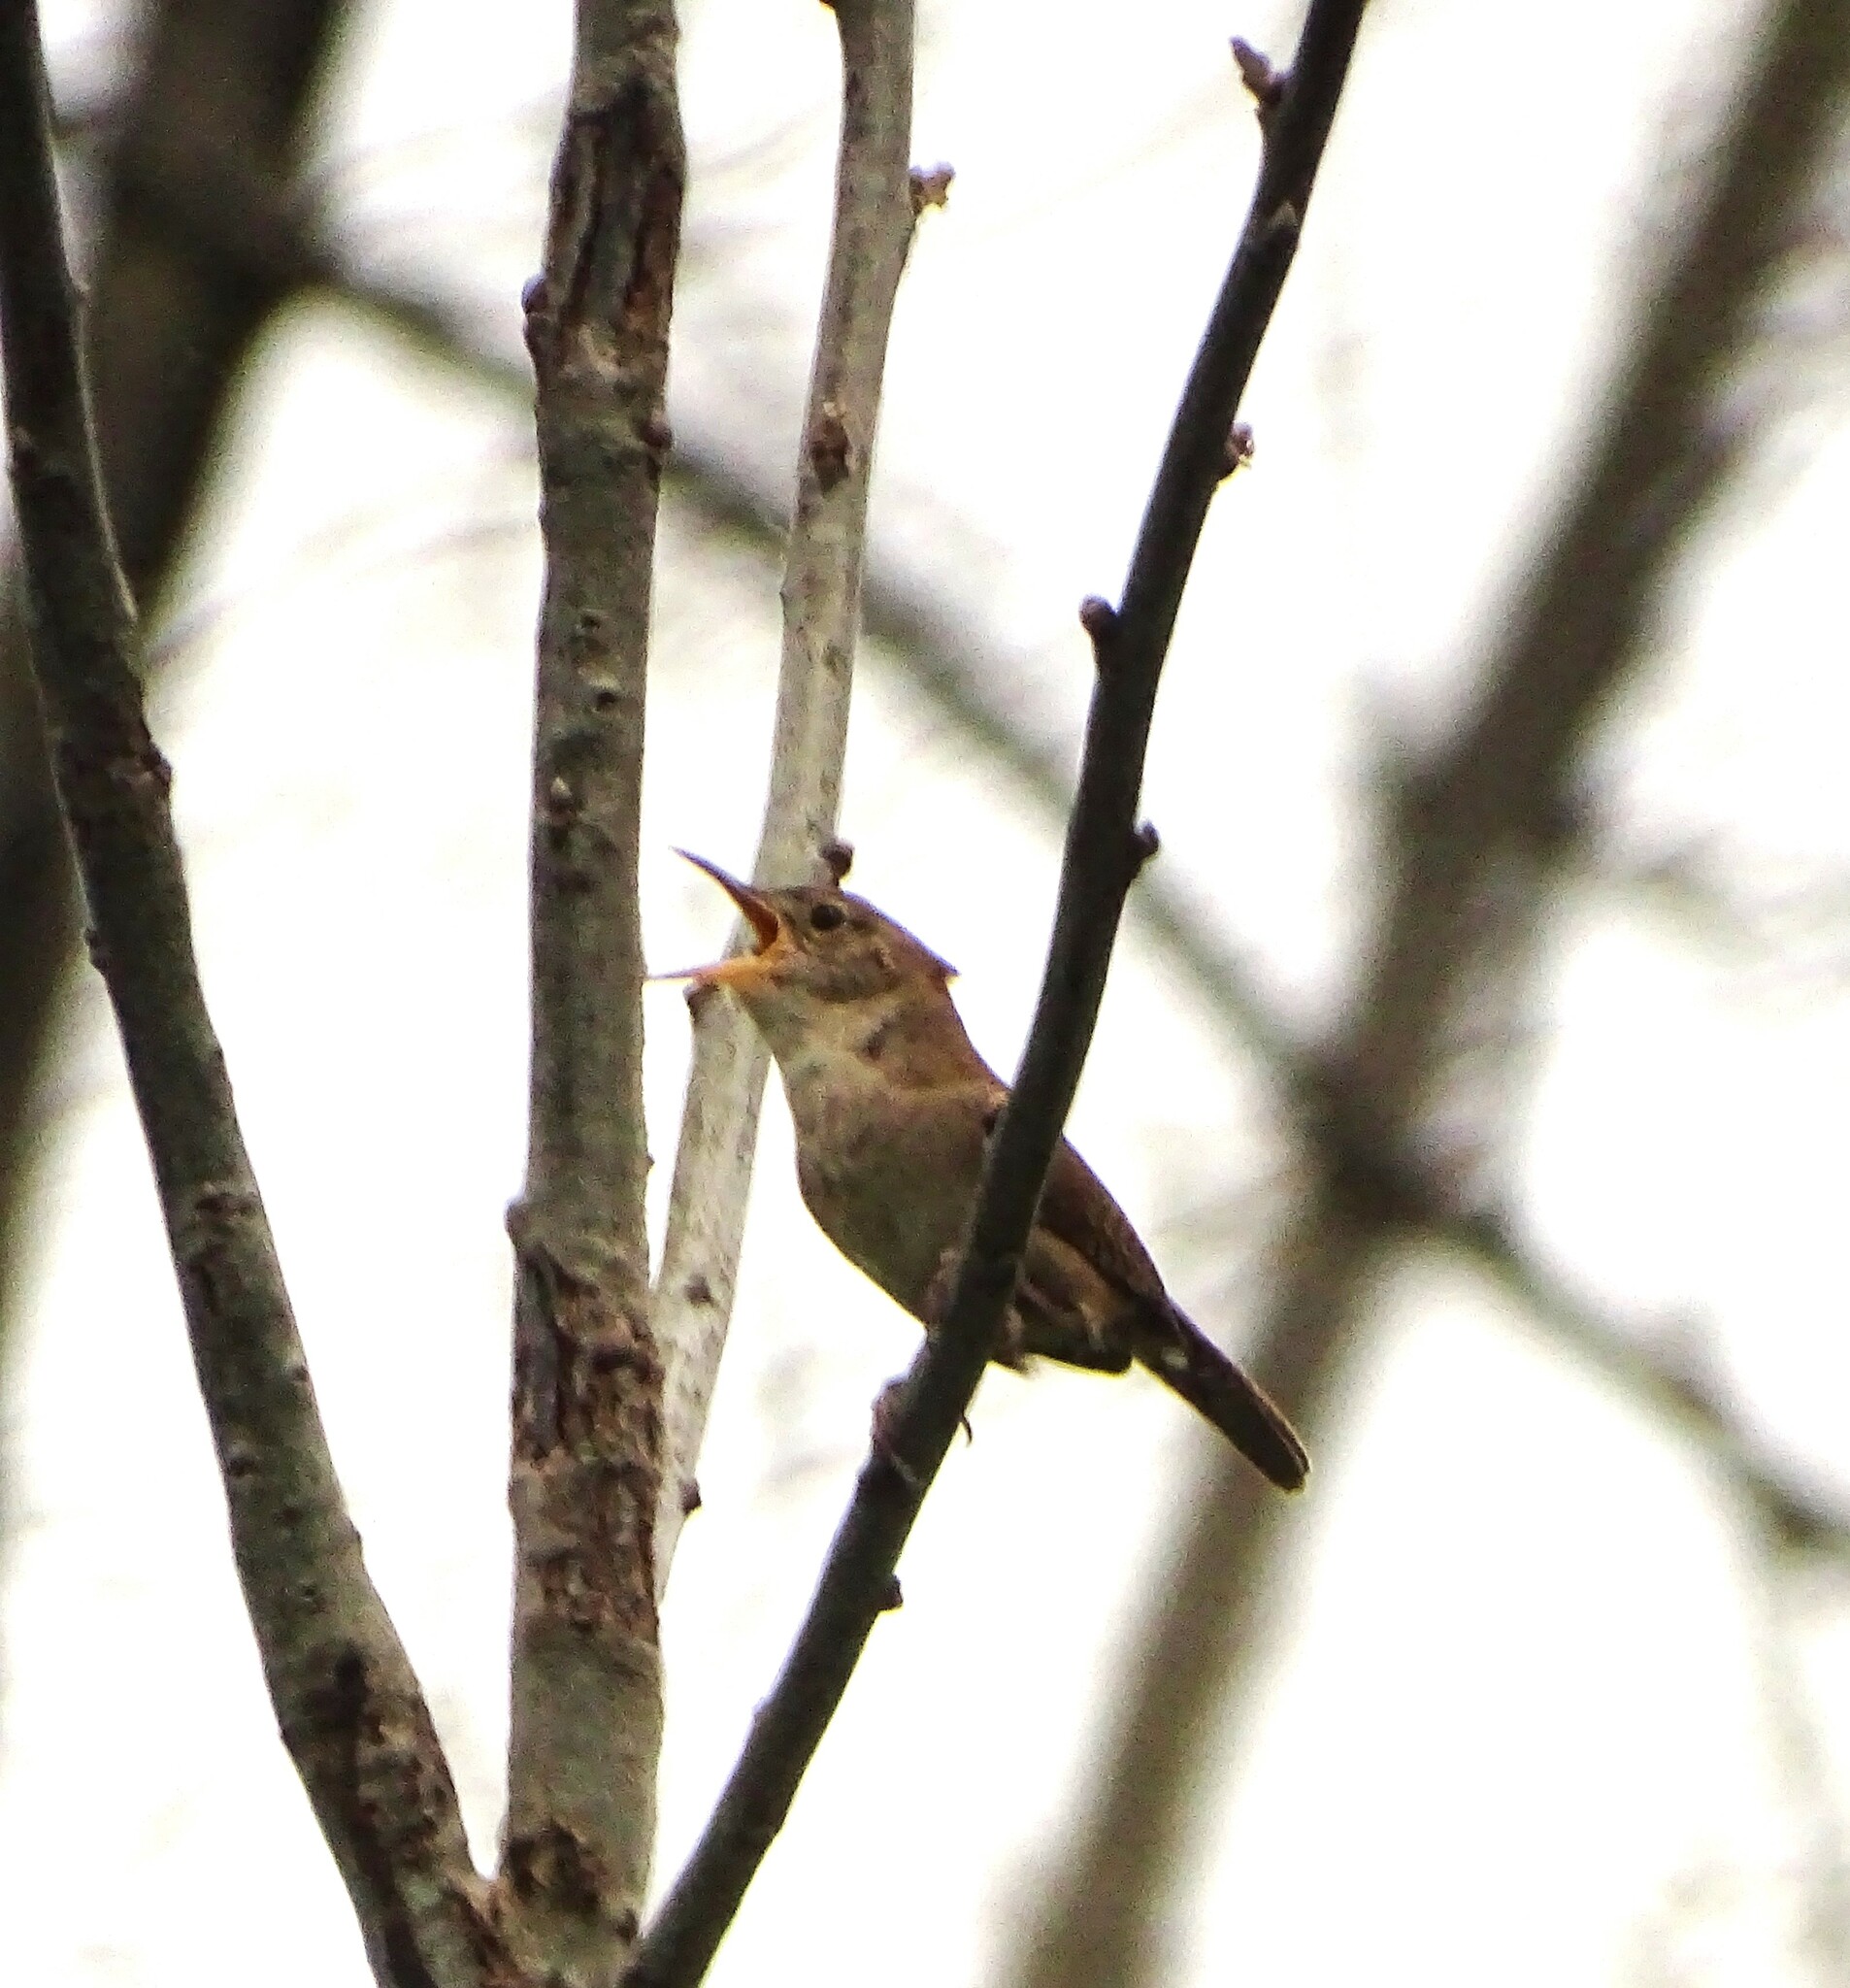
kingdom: Animalia
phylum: Chordata
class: Aves
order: Passeriformes
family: Troglodytidae
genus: Troglodytes
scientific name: Troglodytes aedon
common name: House wren
